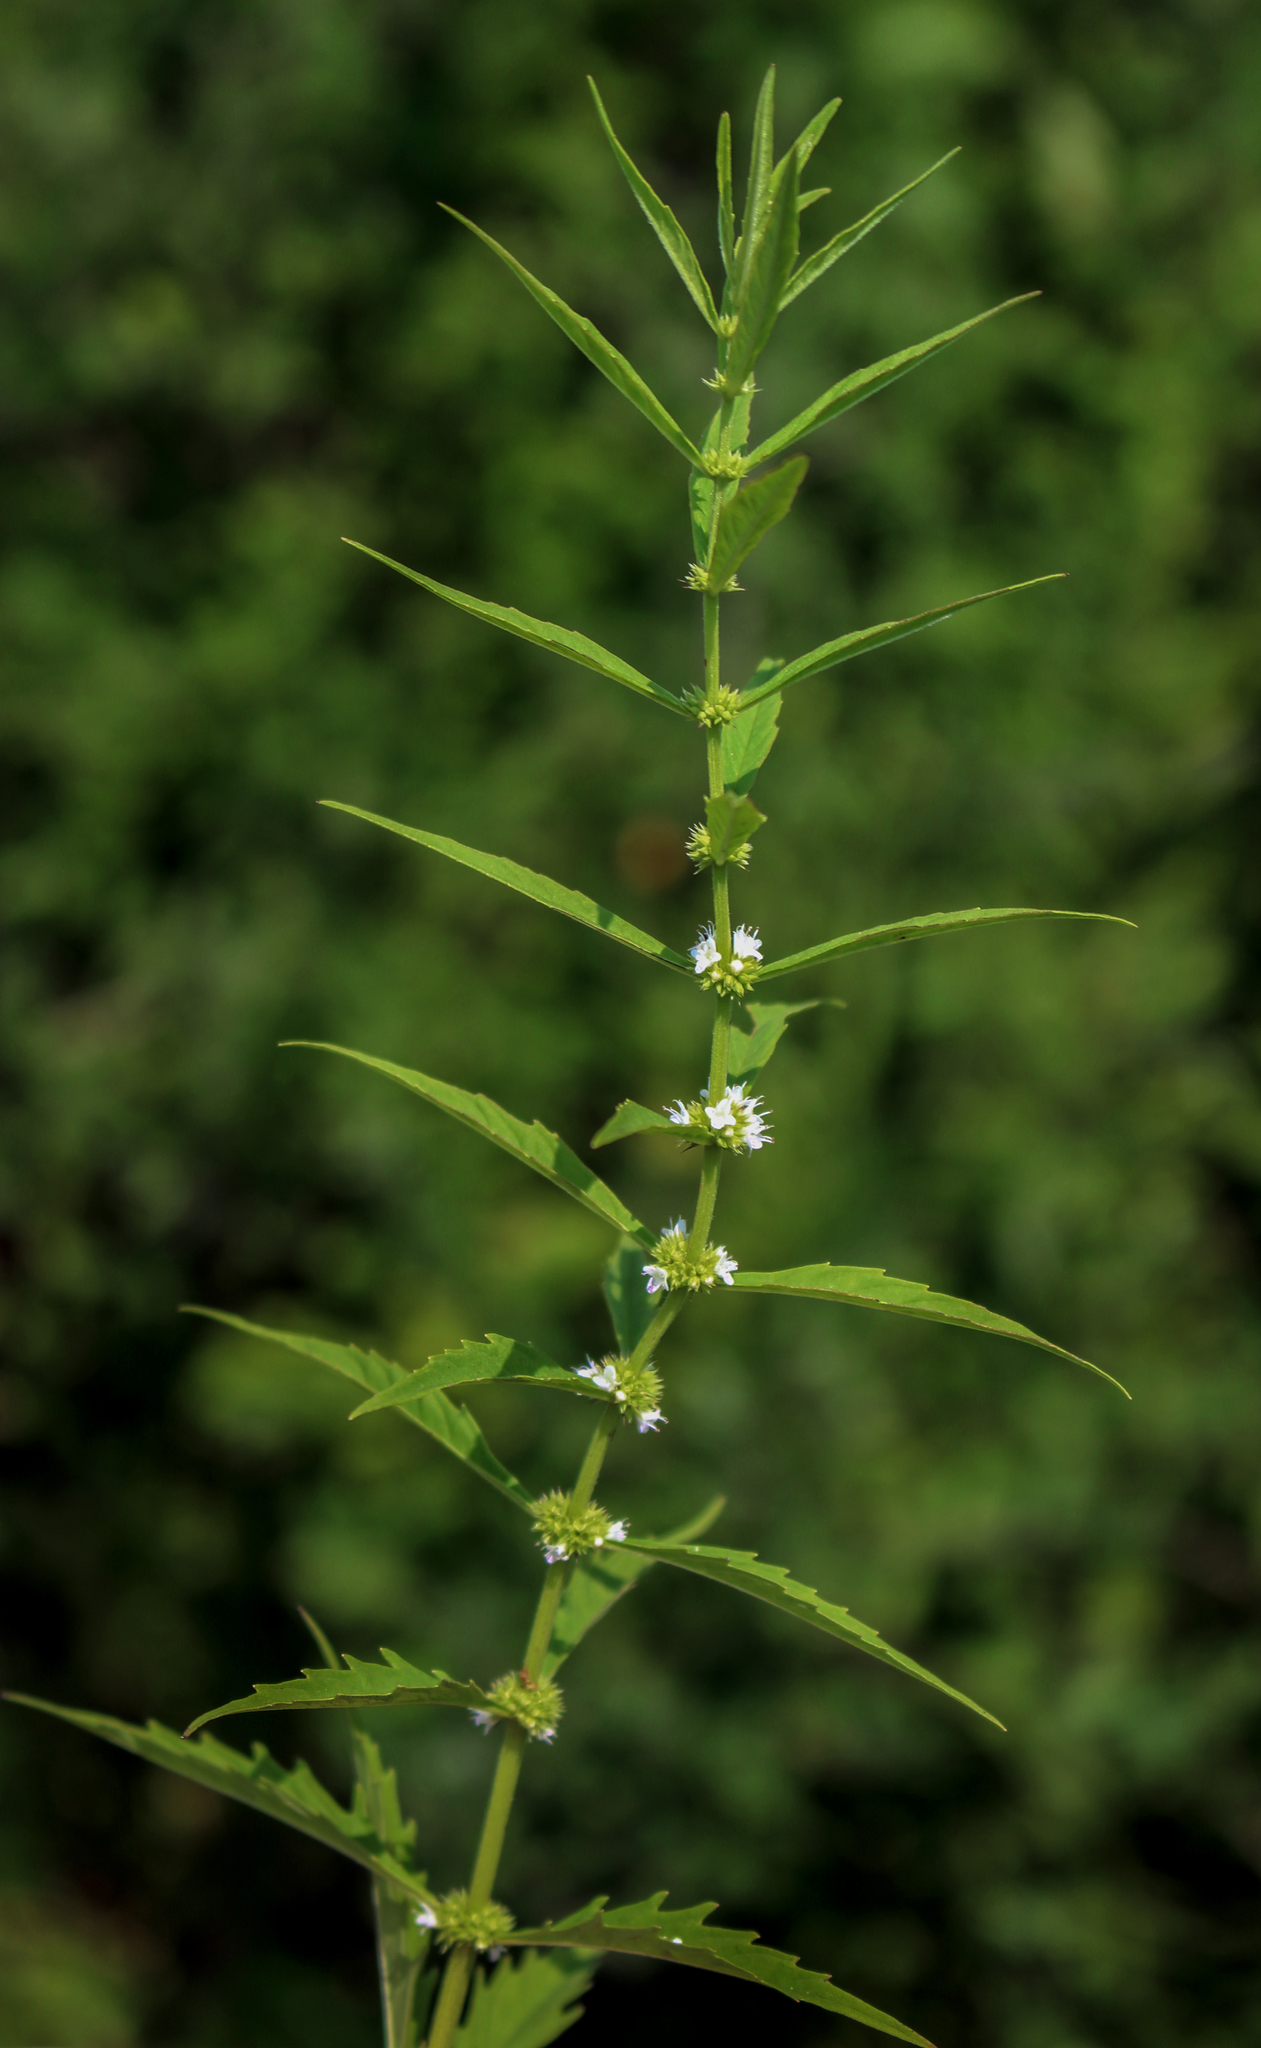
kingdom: Plantae
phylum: Tracheophyta
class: Magnoliopsida
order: Lamiales
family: Lamiaceae
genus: Lycopus
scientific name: Lycopus americanus
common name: American bugleweed
